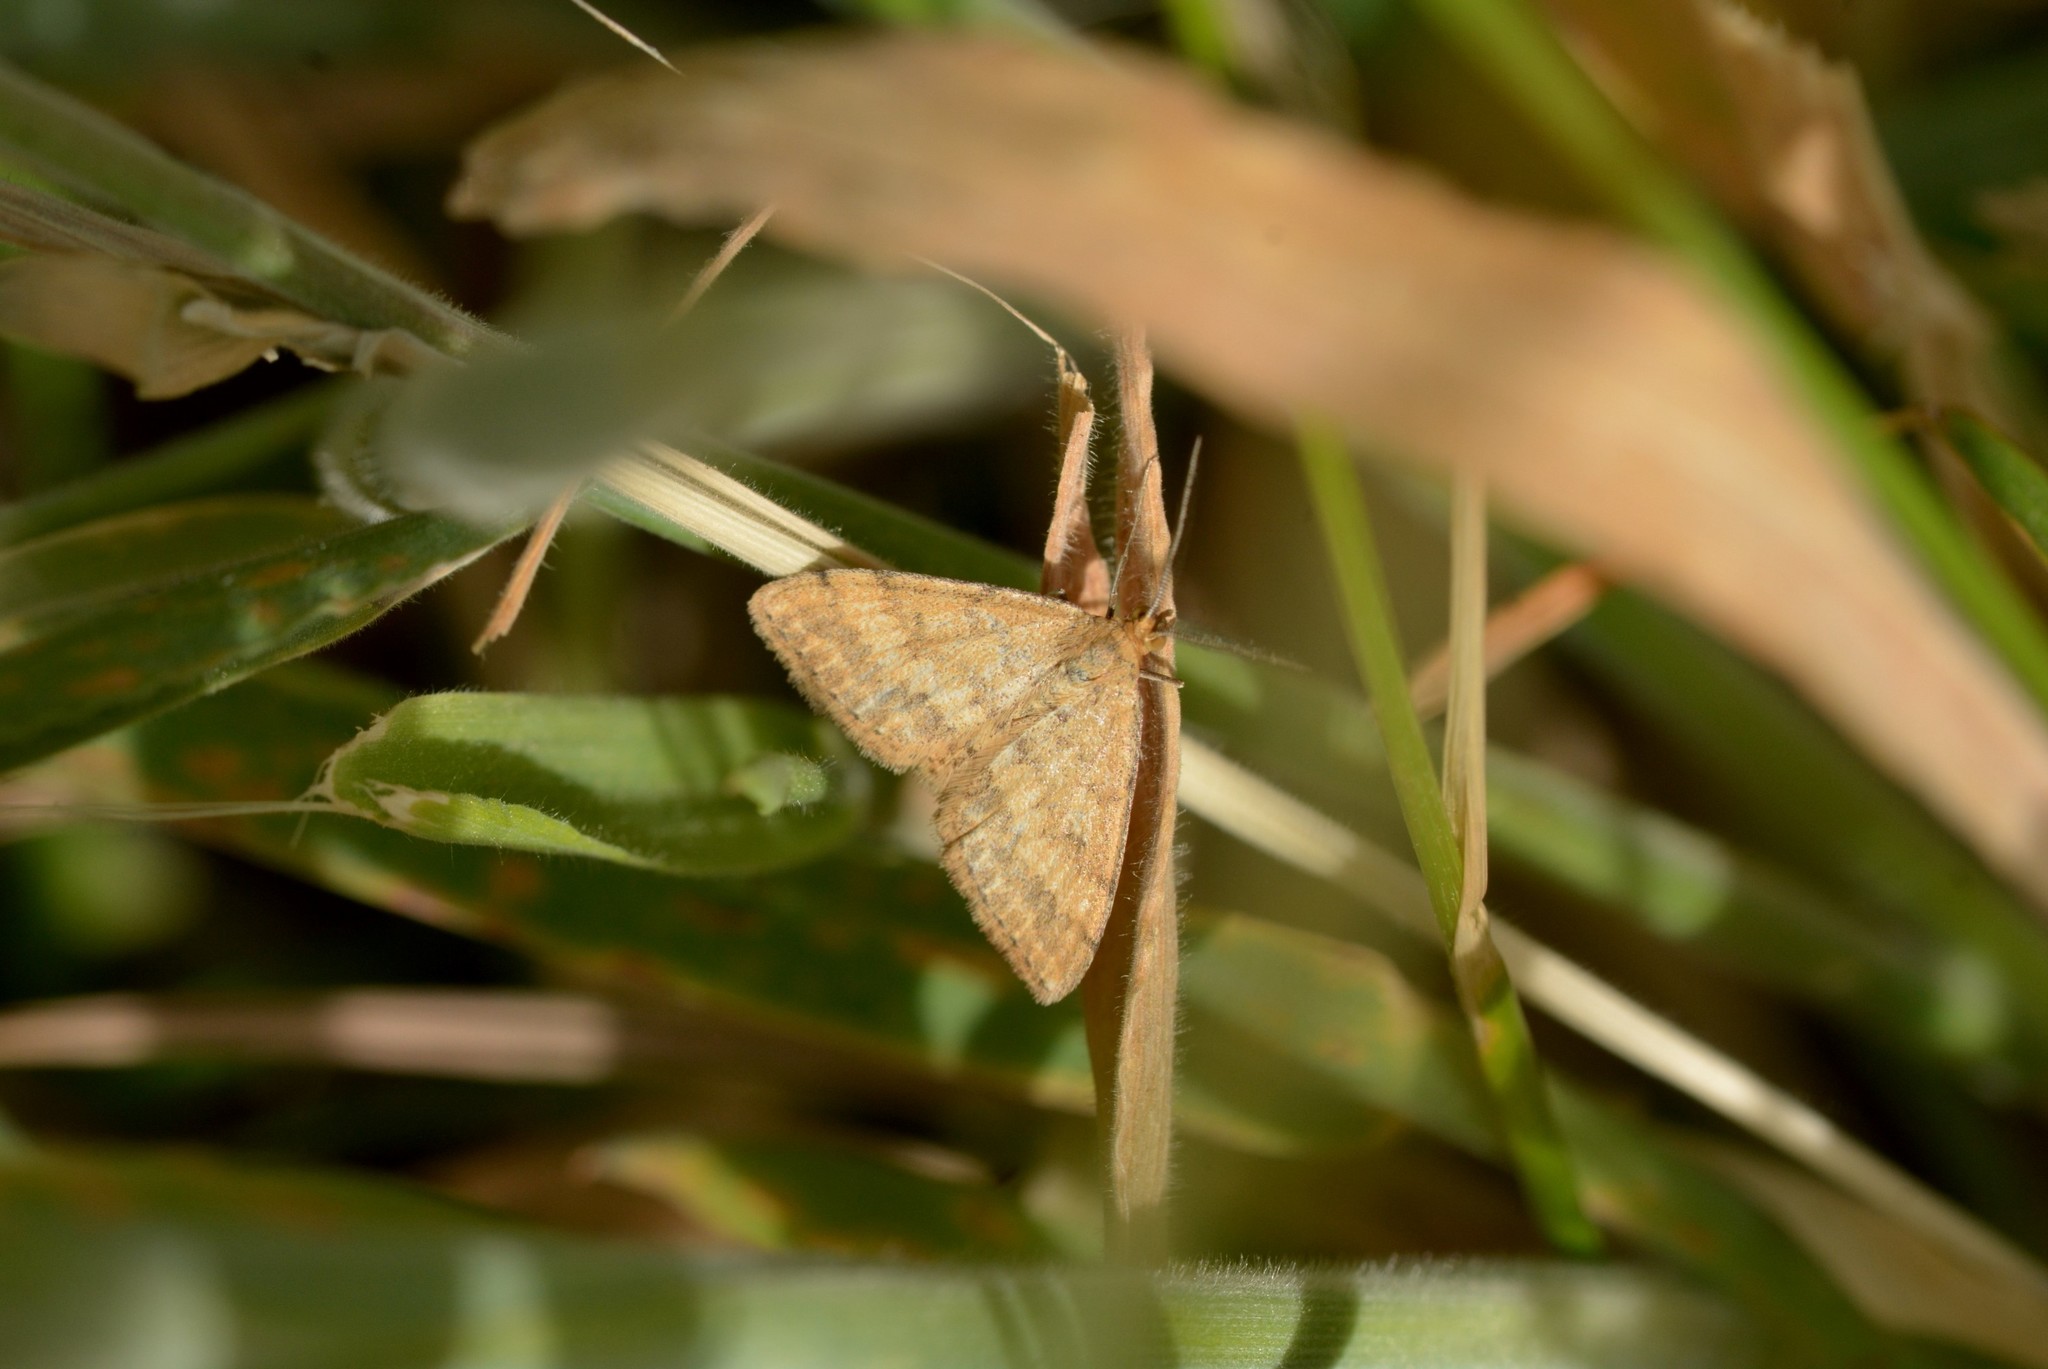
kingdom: Animalia
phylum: Arthropoda
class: Insecta
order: Lepidoptera
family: Geometridae
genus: Scopula
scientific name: Scopula rubraria
